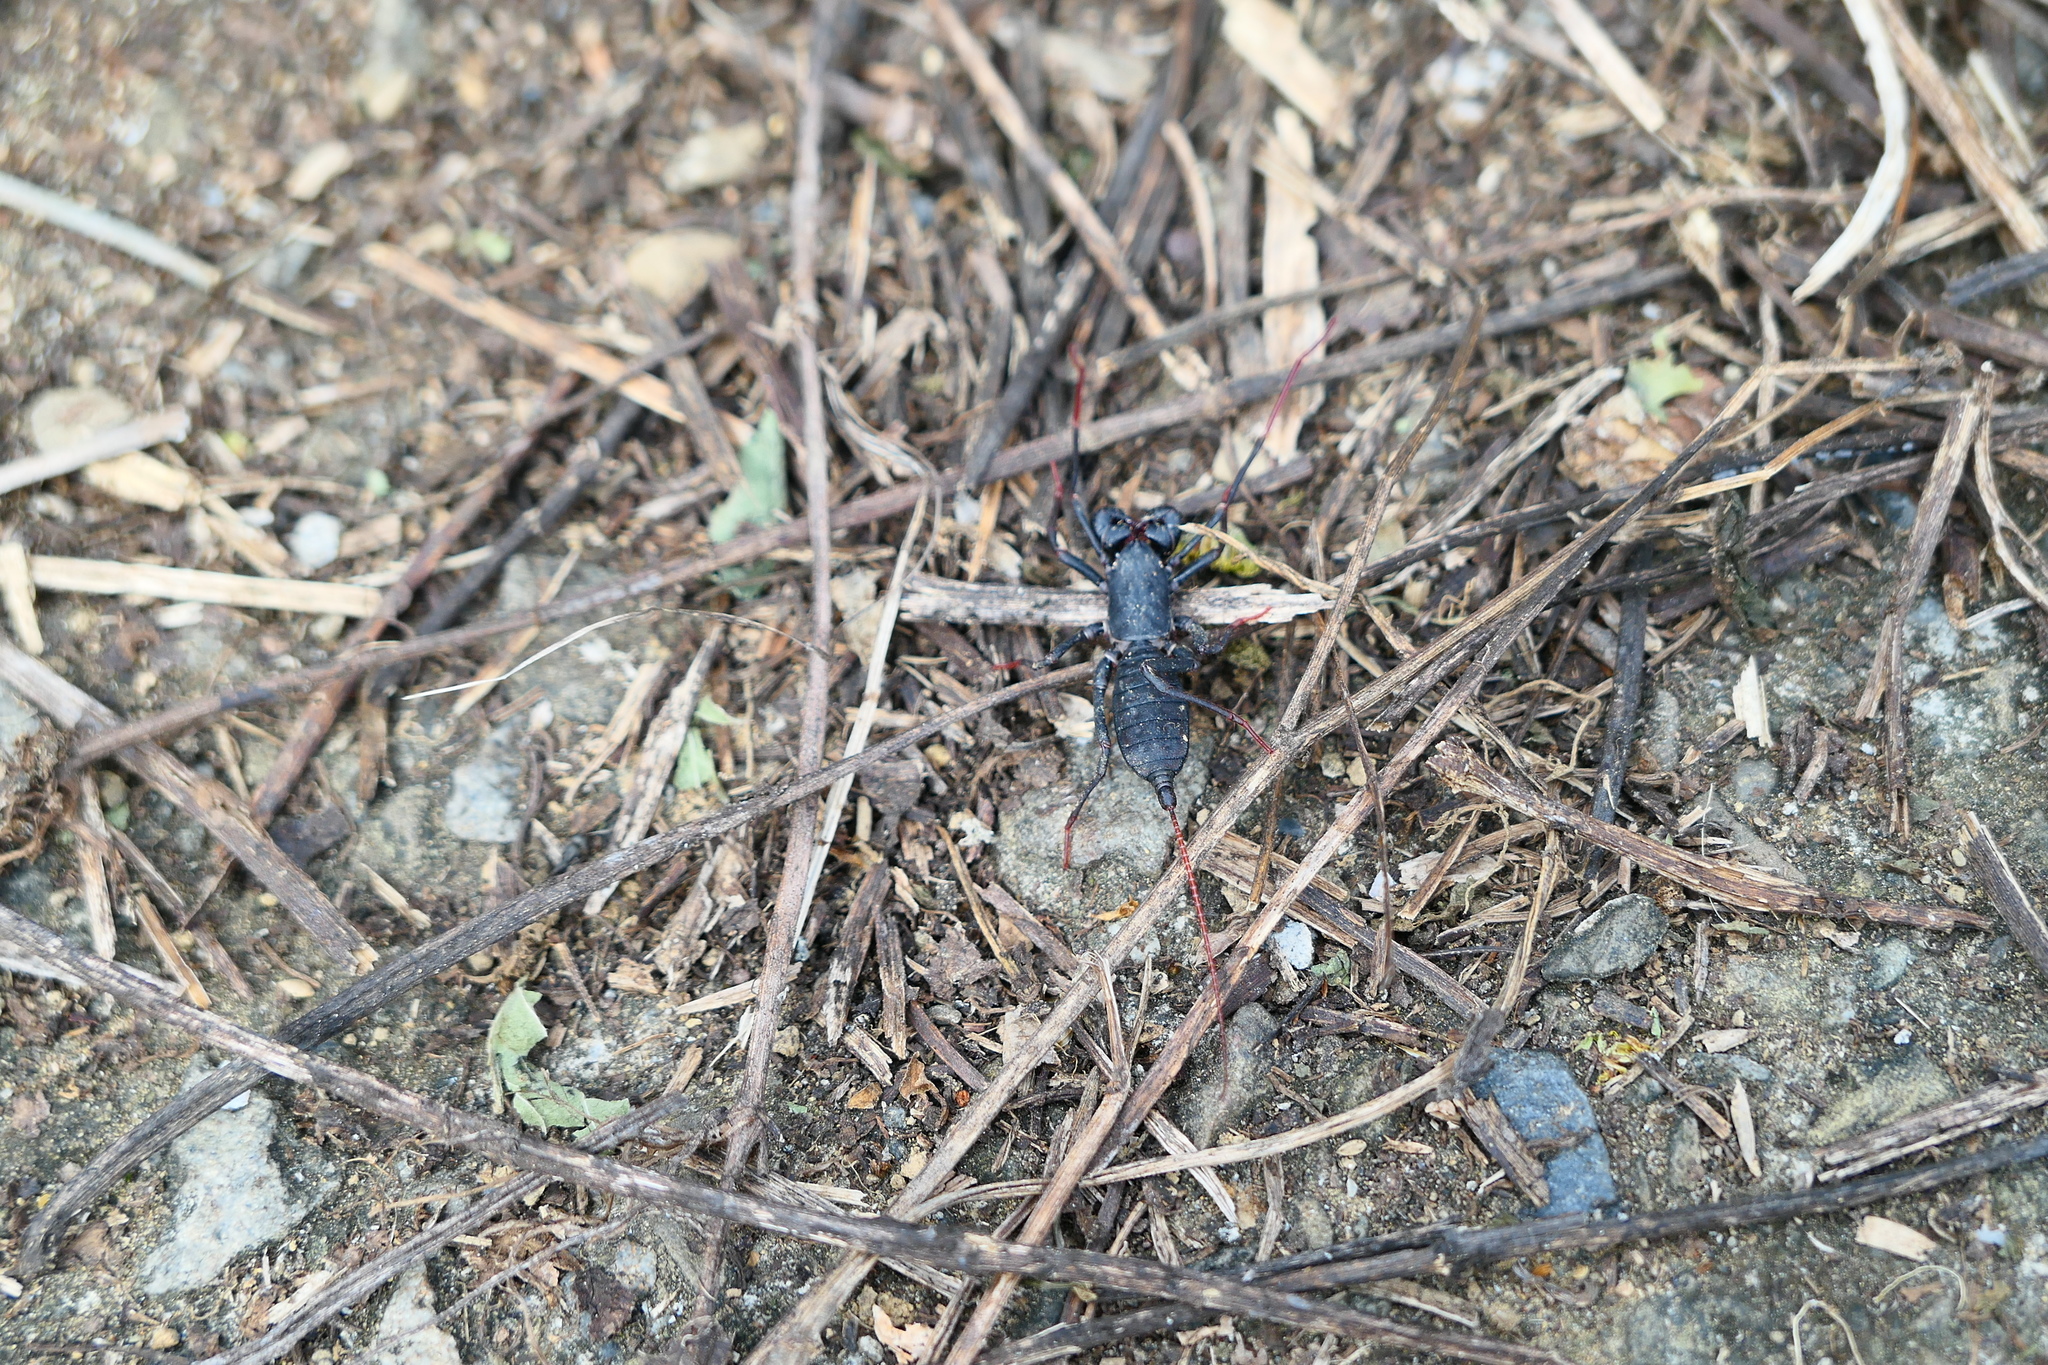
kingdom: Animalia
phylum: Arthropoda
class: Arachnida
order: Uropygi
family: Thelyphonidae
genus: Typopeltis
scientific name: Typopeltis crucifer
